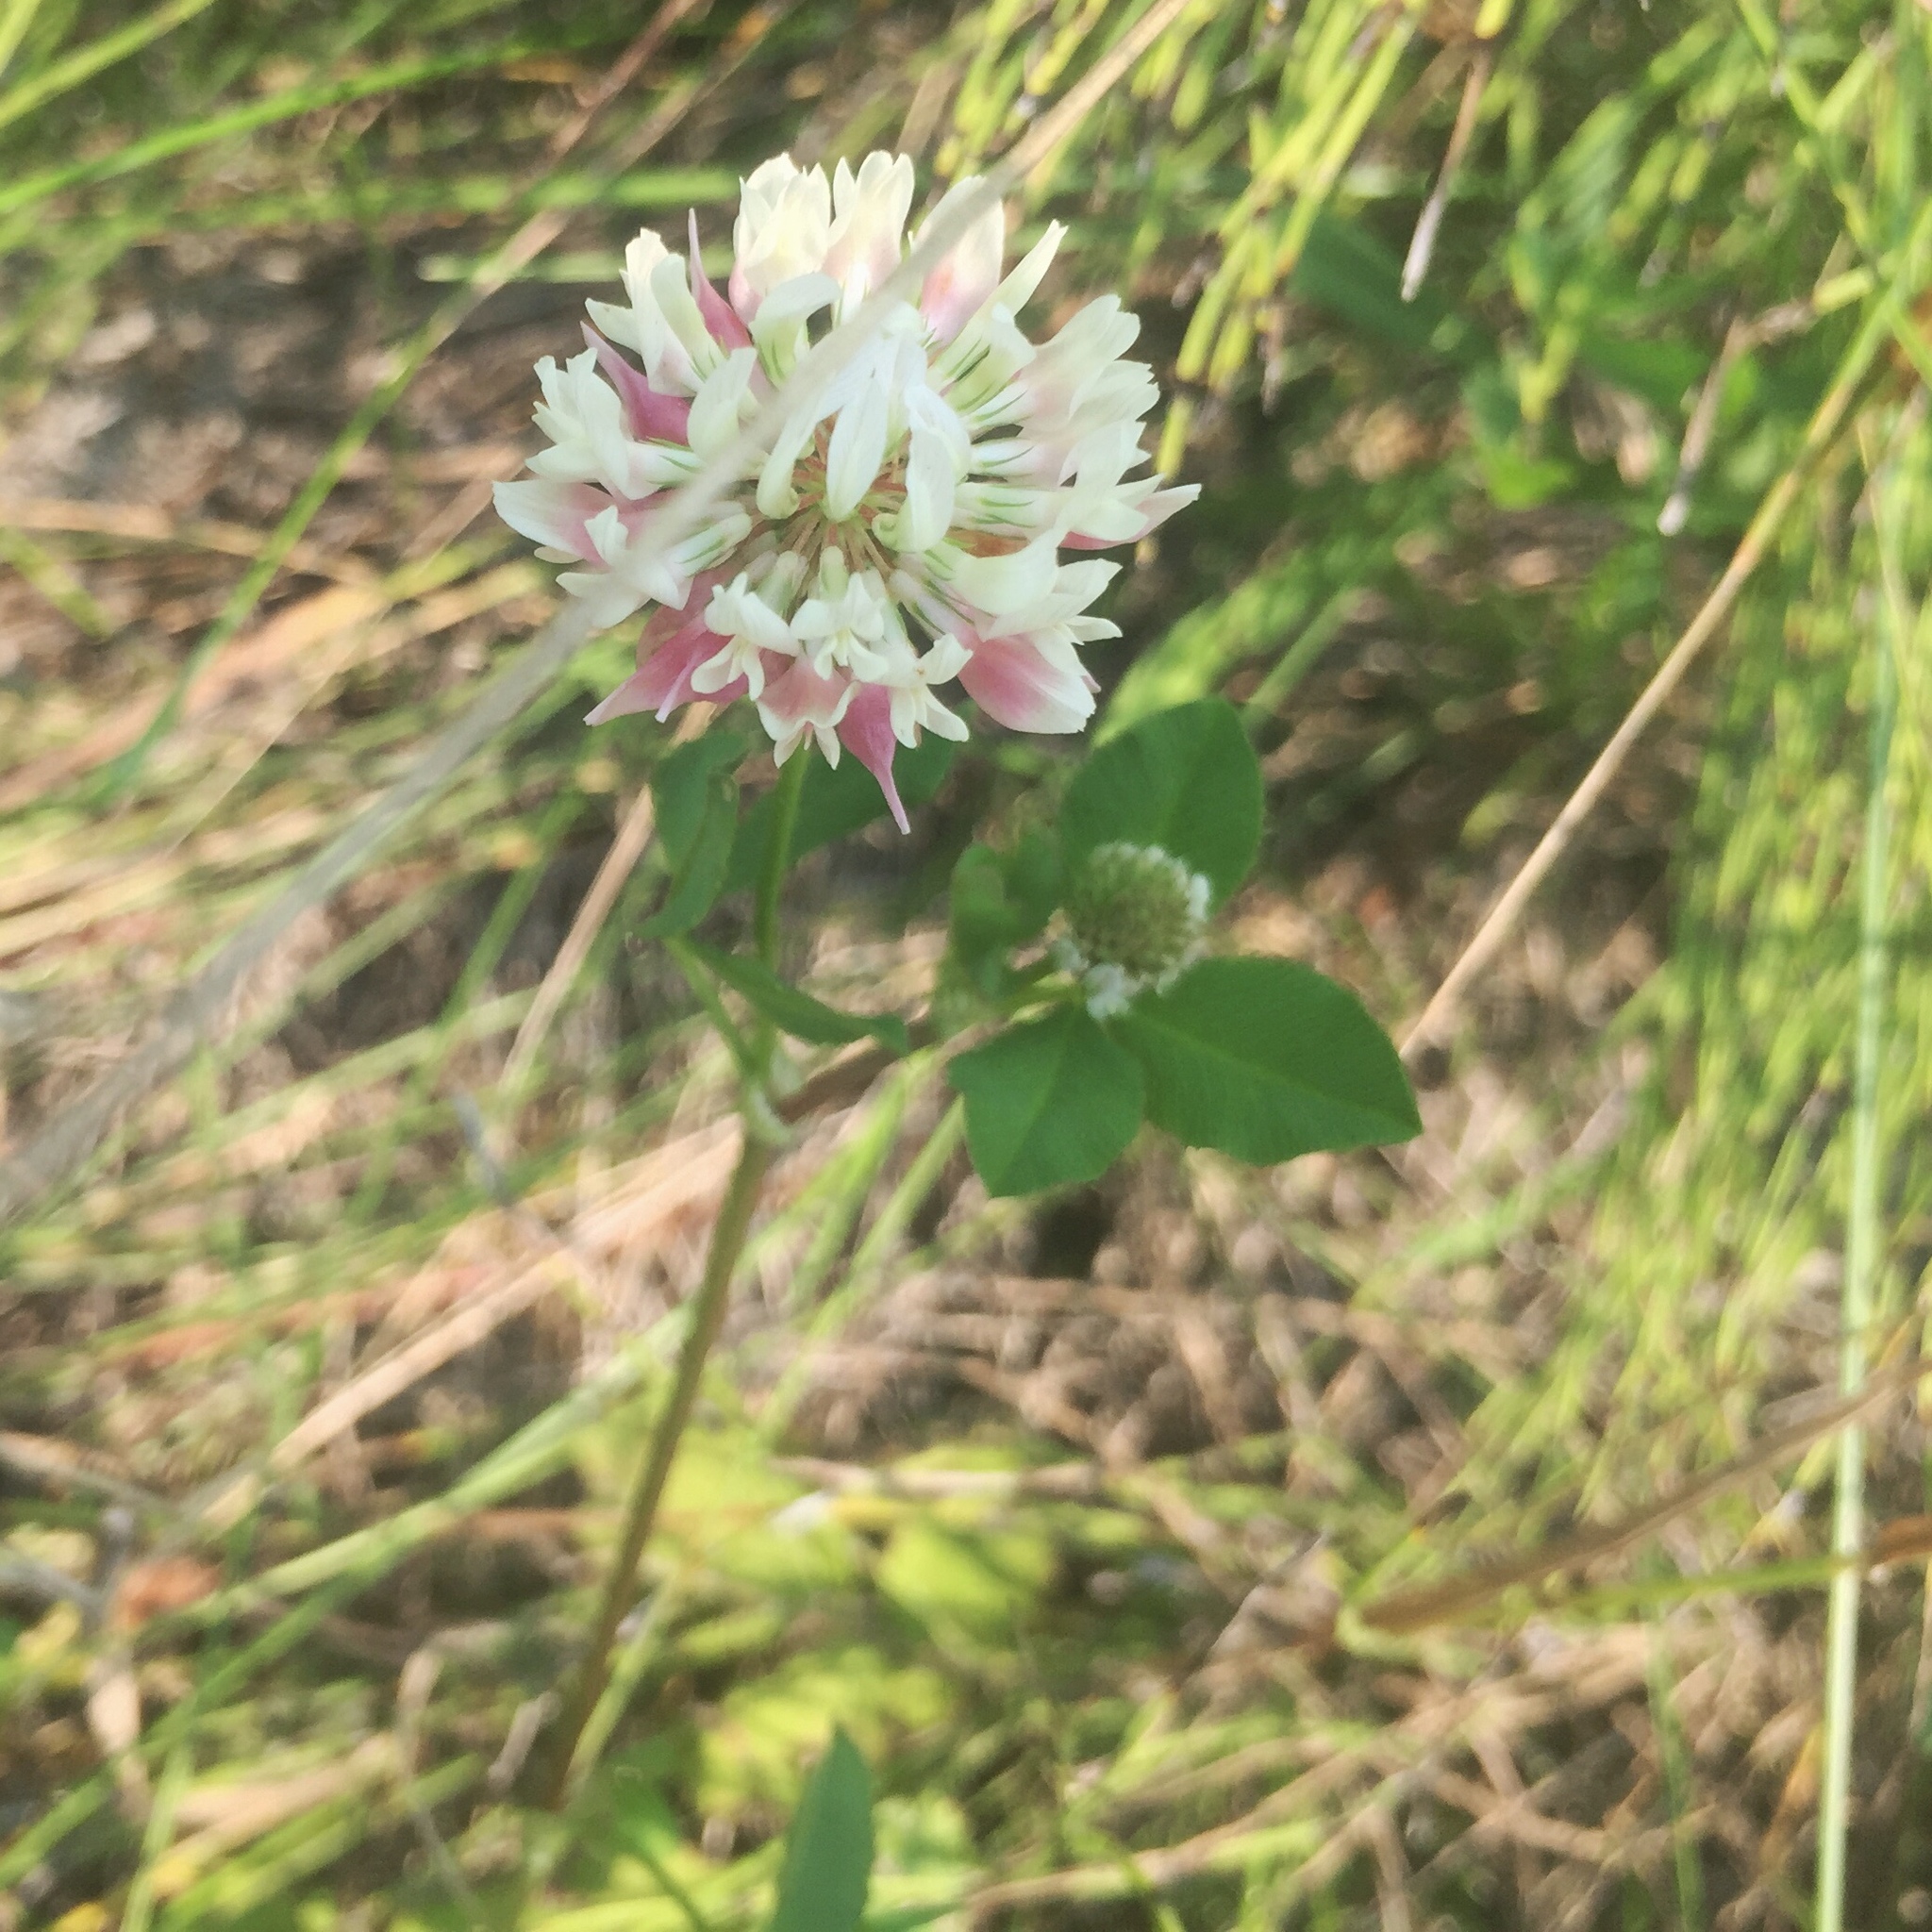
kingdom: Plantae
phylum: Tracheophyta
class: Magnoliopsida
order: Fabales
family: Fabaceae
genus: Trifolium
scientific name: Trifolium hybridum
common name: Alsike clover
